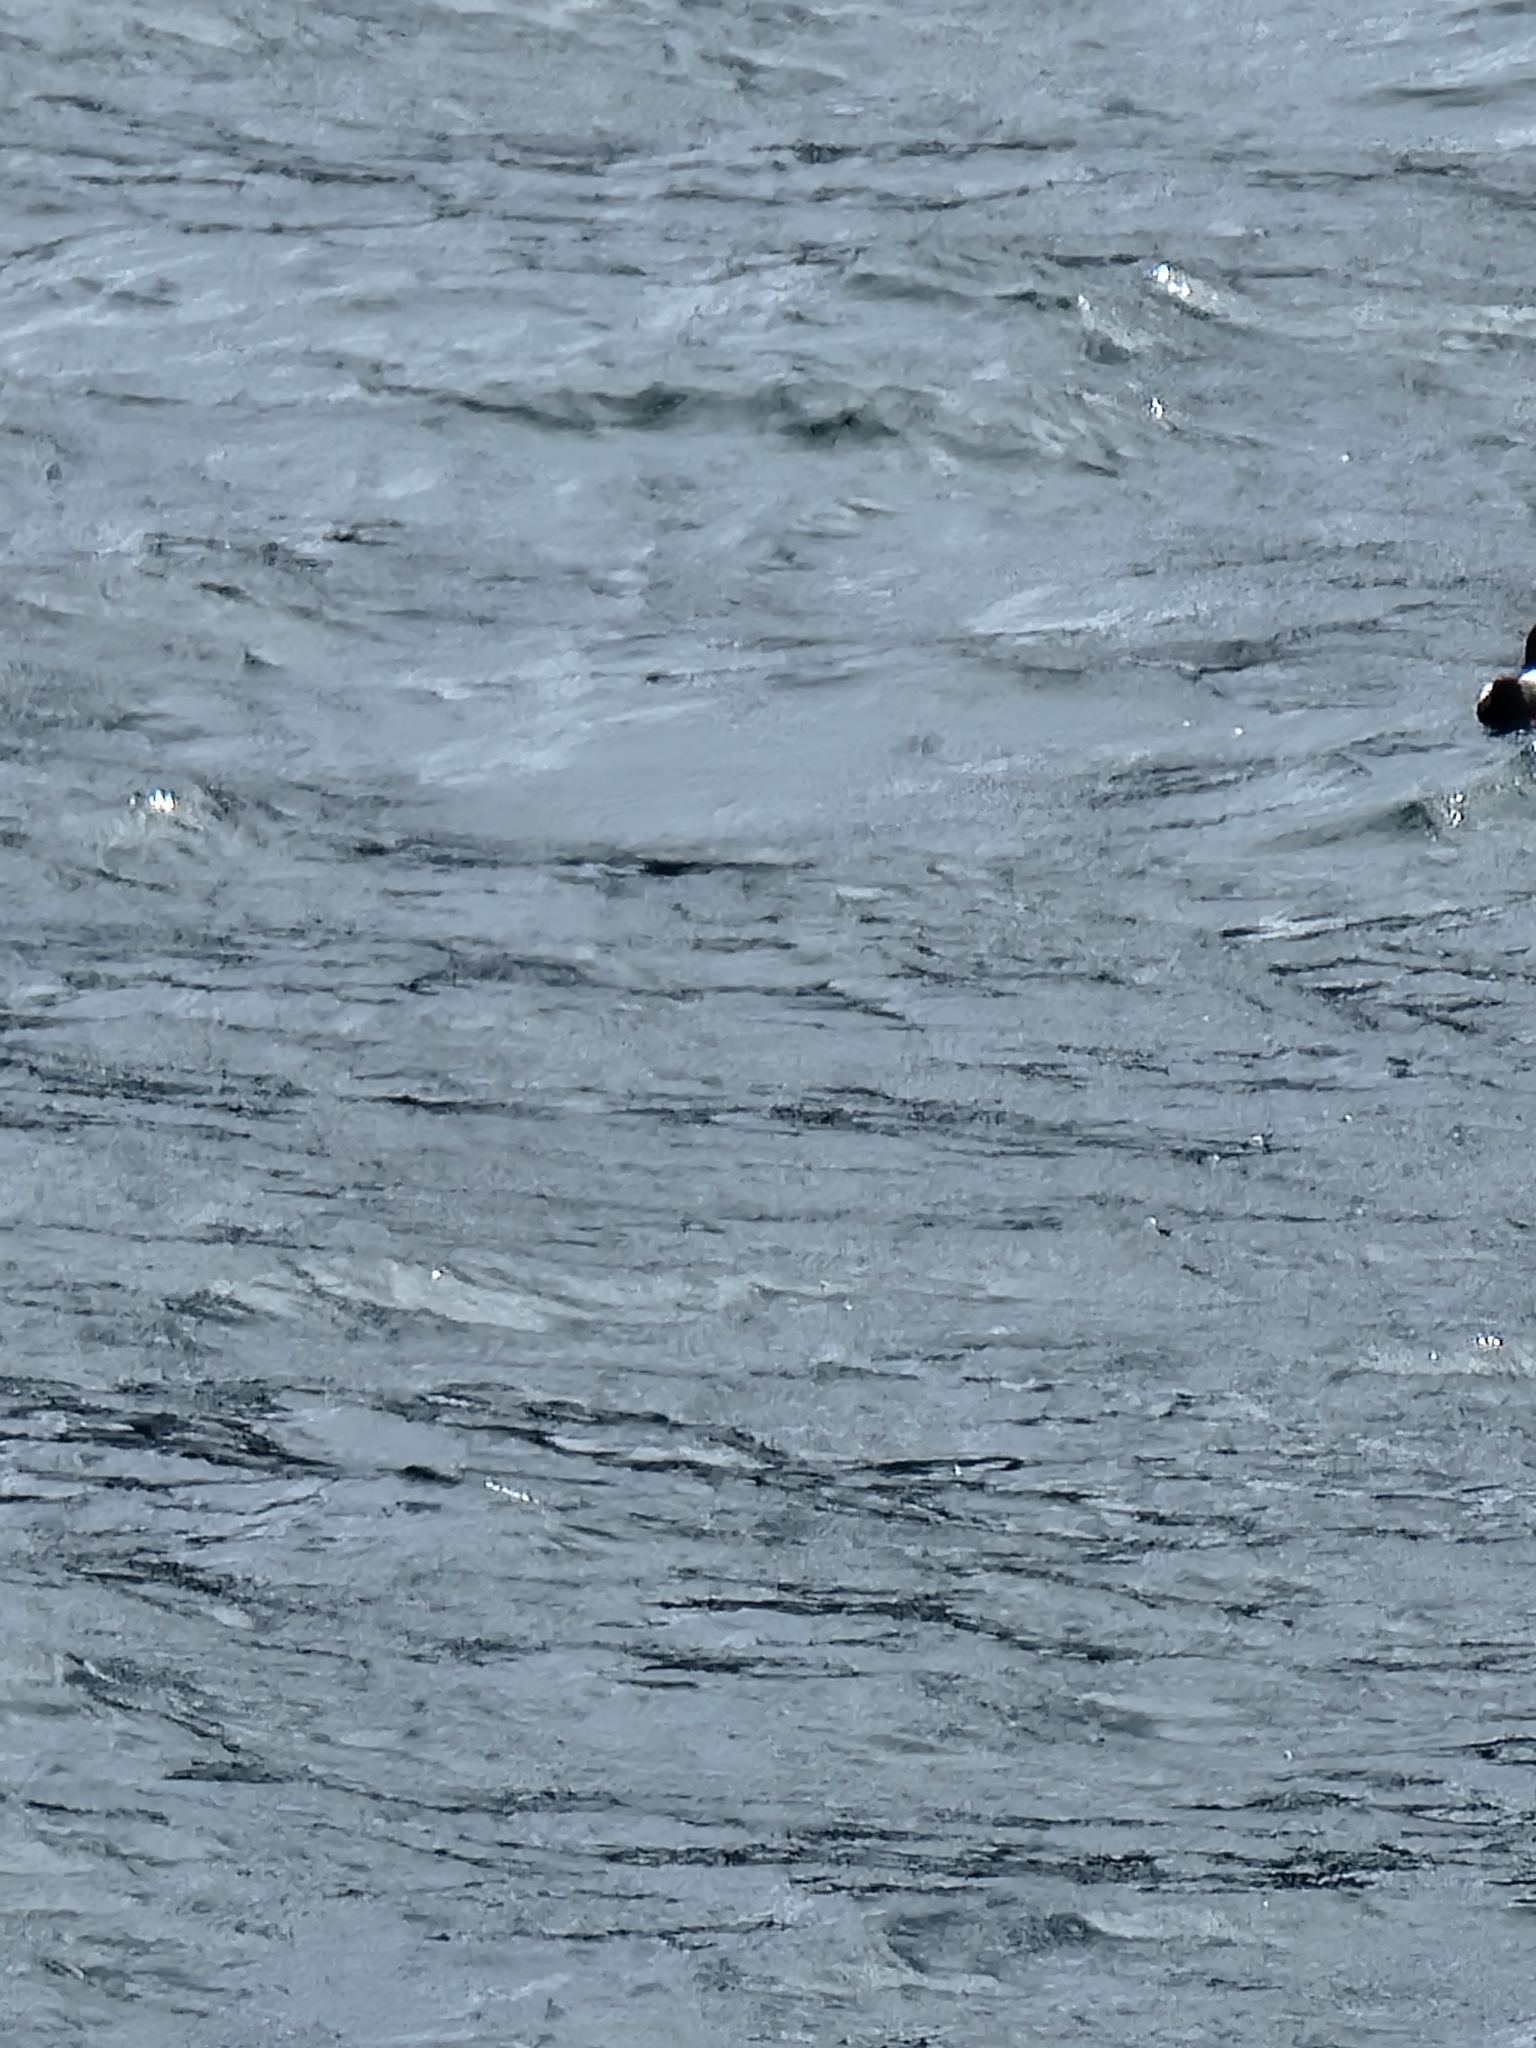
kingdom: Animalia
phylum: Chordata
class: Aves
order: Charadriiformes
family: Alcidae
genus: Cepphus
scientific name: Cepphus columba
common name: Pigeon guillemot
